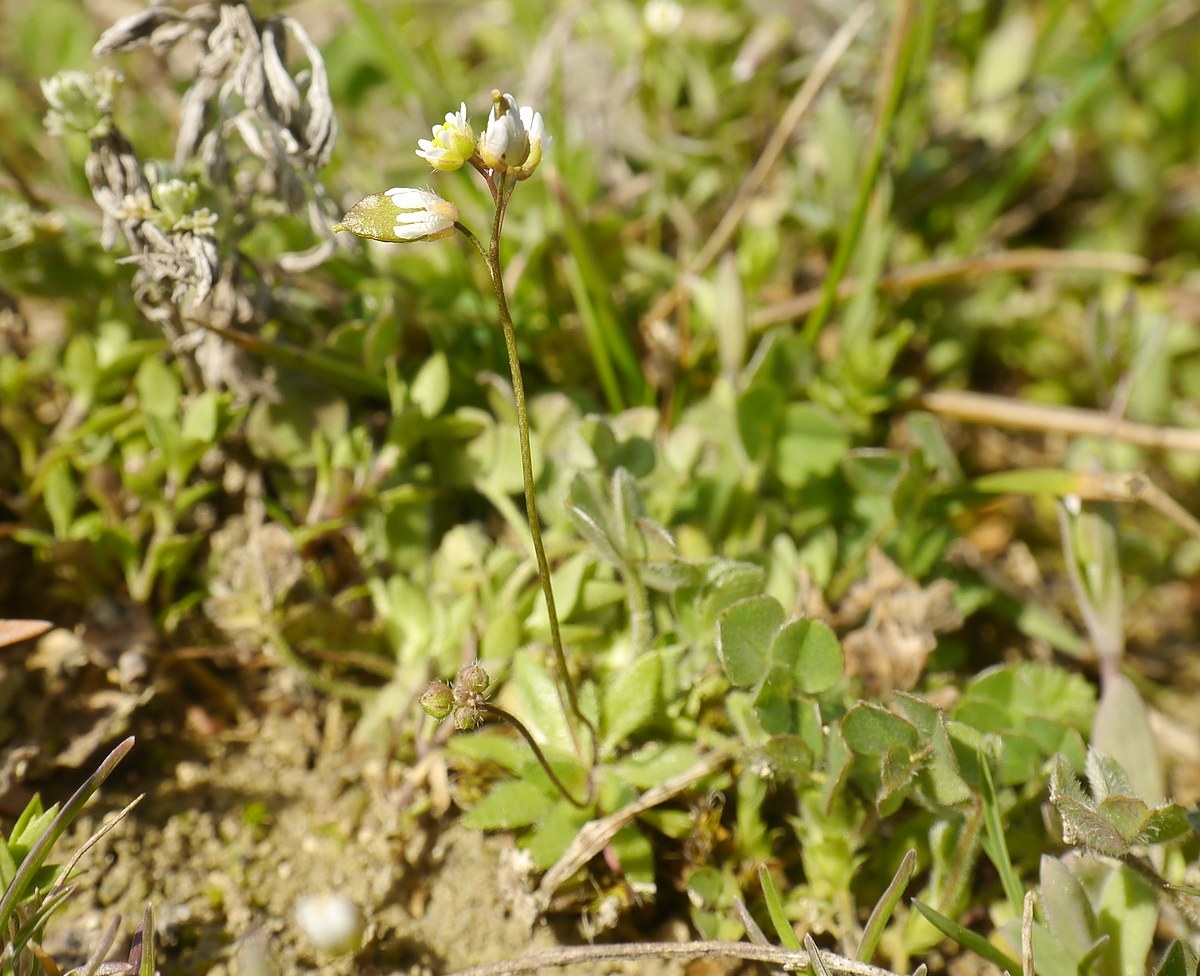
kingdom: Plantae
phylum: Tracheophyta
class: Magnoliopsida
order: Brassicales
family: Brassicaceae
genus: Draba
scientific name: Draba verna
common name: Spring draba
